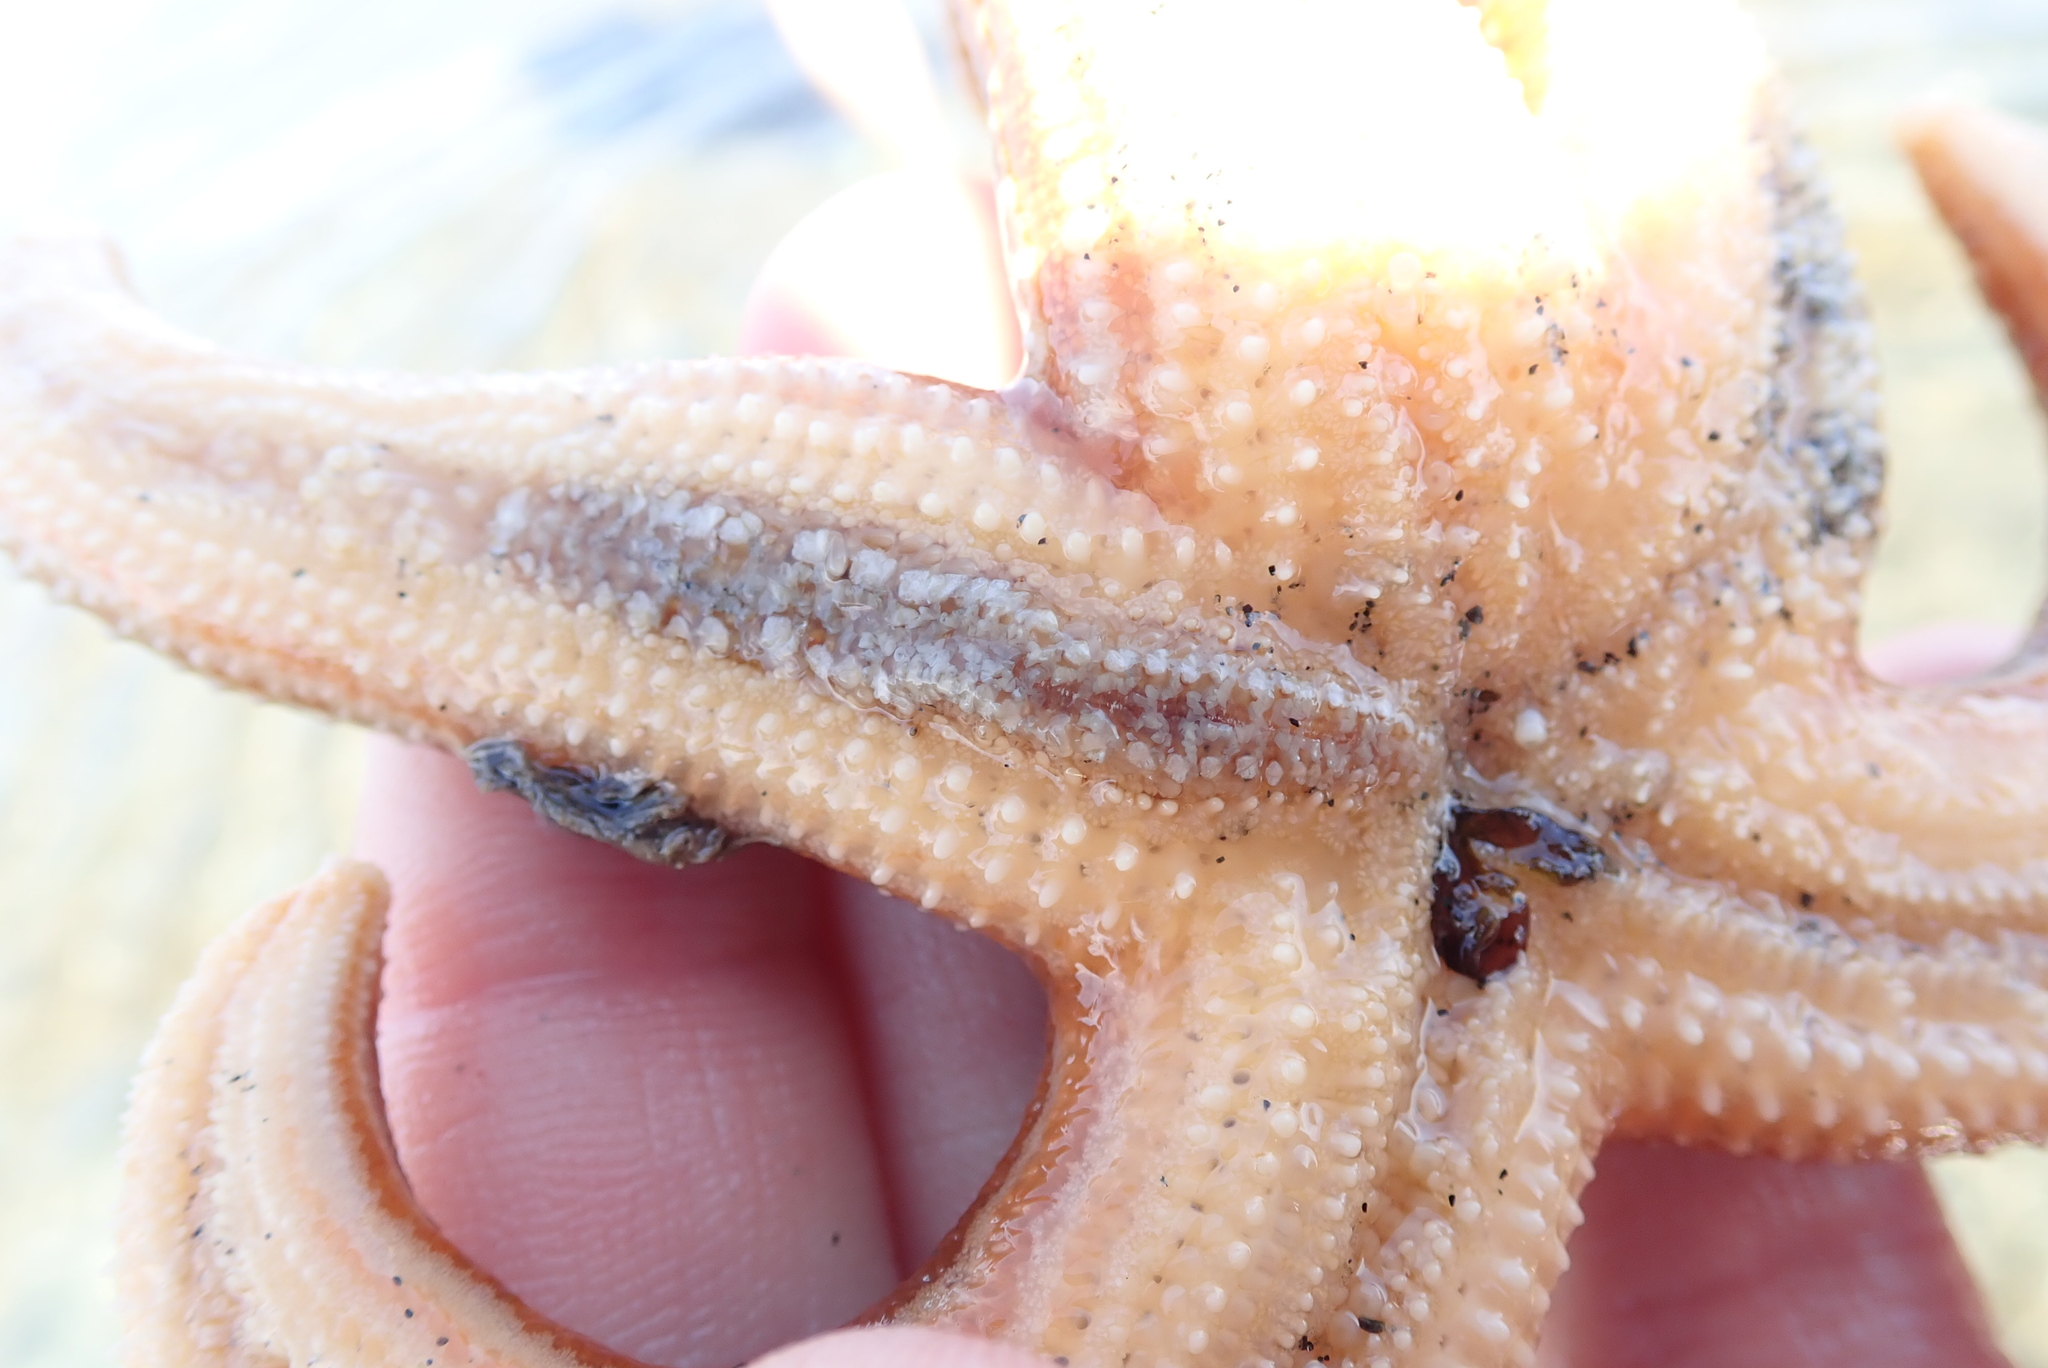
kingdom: Animalia
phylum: Annelida
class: Polychaeta
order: Phyllodocida
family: Polynoidae
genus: Arctonoe
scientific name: Arctonoe fragilis
